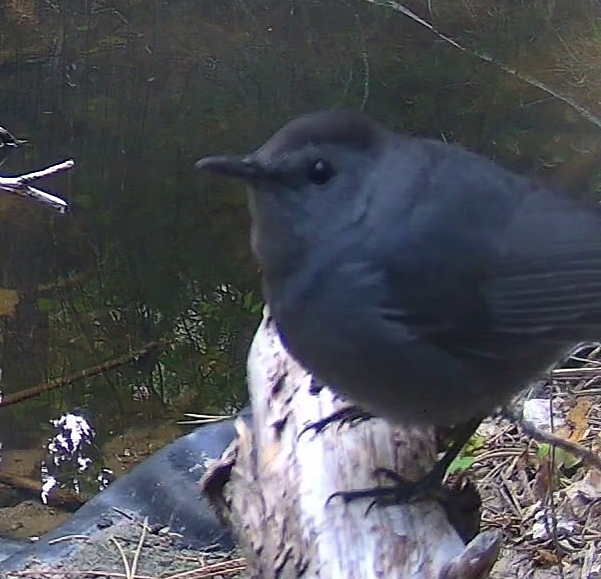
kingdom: Animalia
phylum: Chordata
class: Aves
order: Passeriformes
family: Mimidae
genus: Dumetella
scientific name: Dumetella carolinensis
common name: Gray catbird
